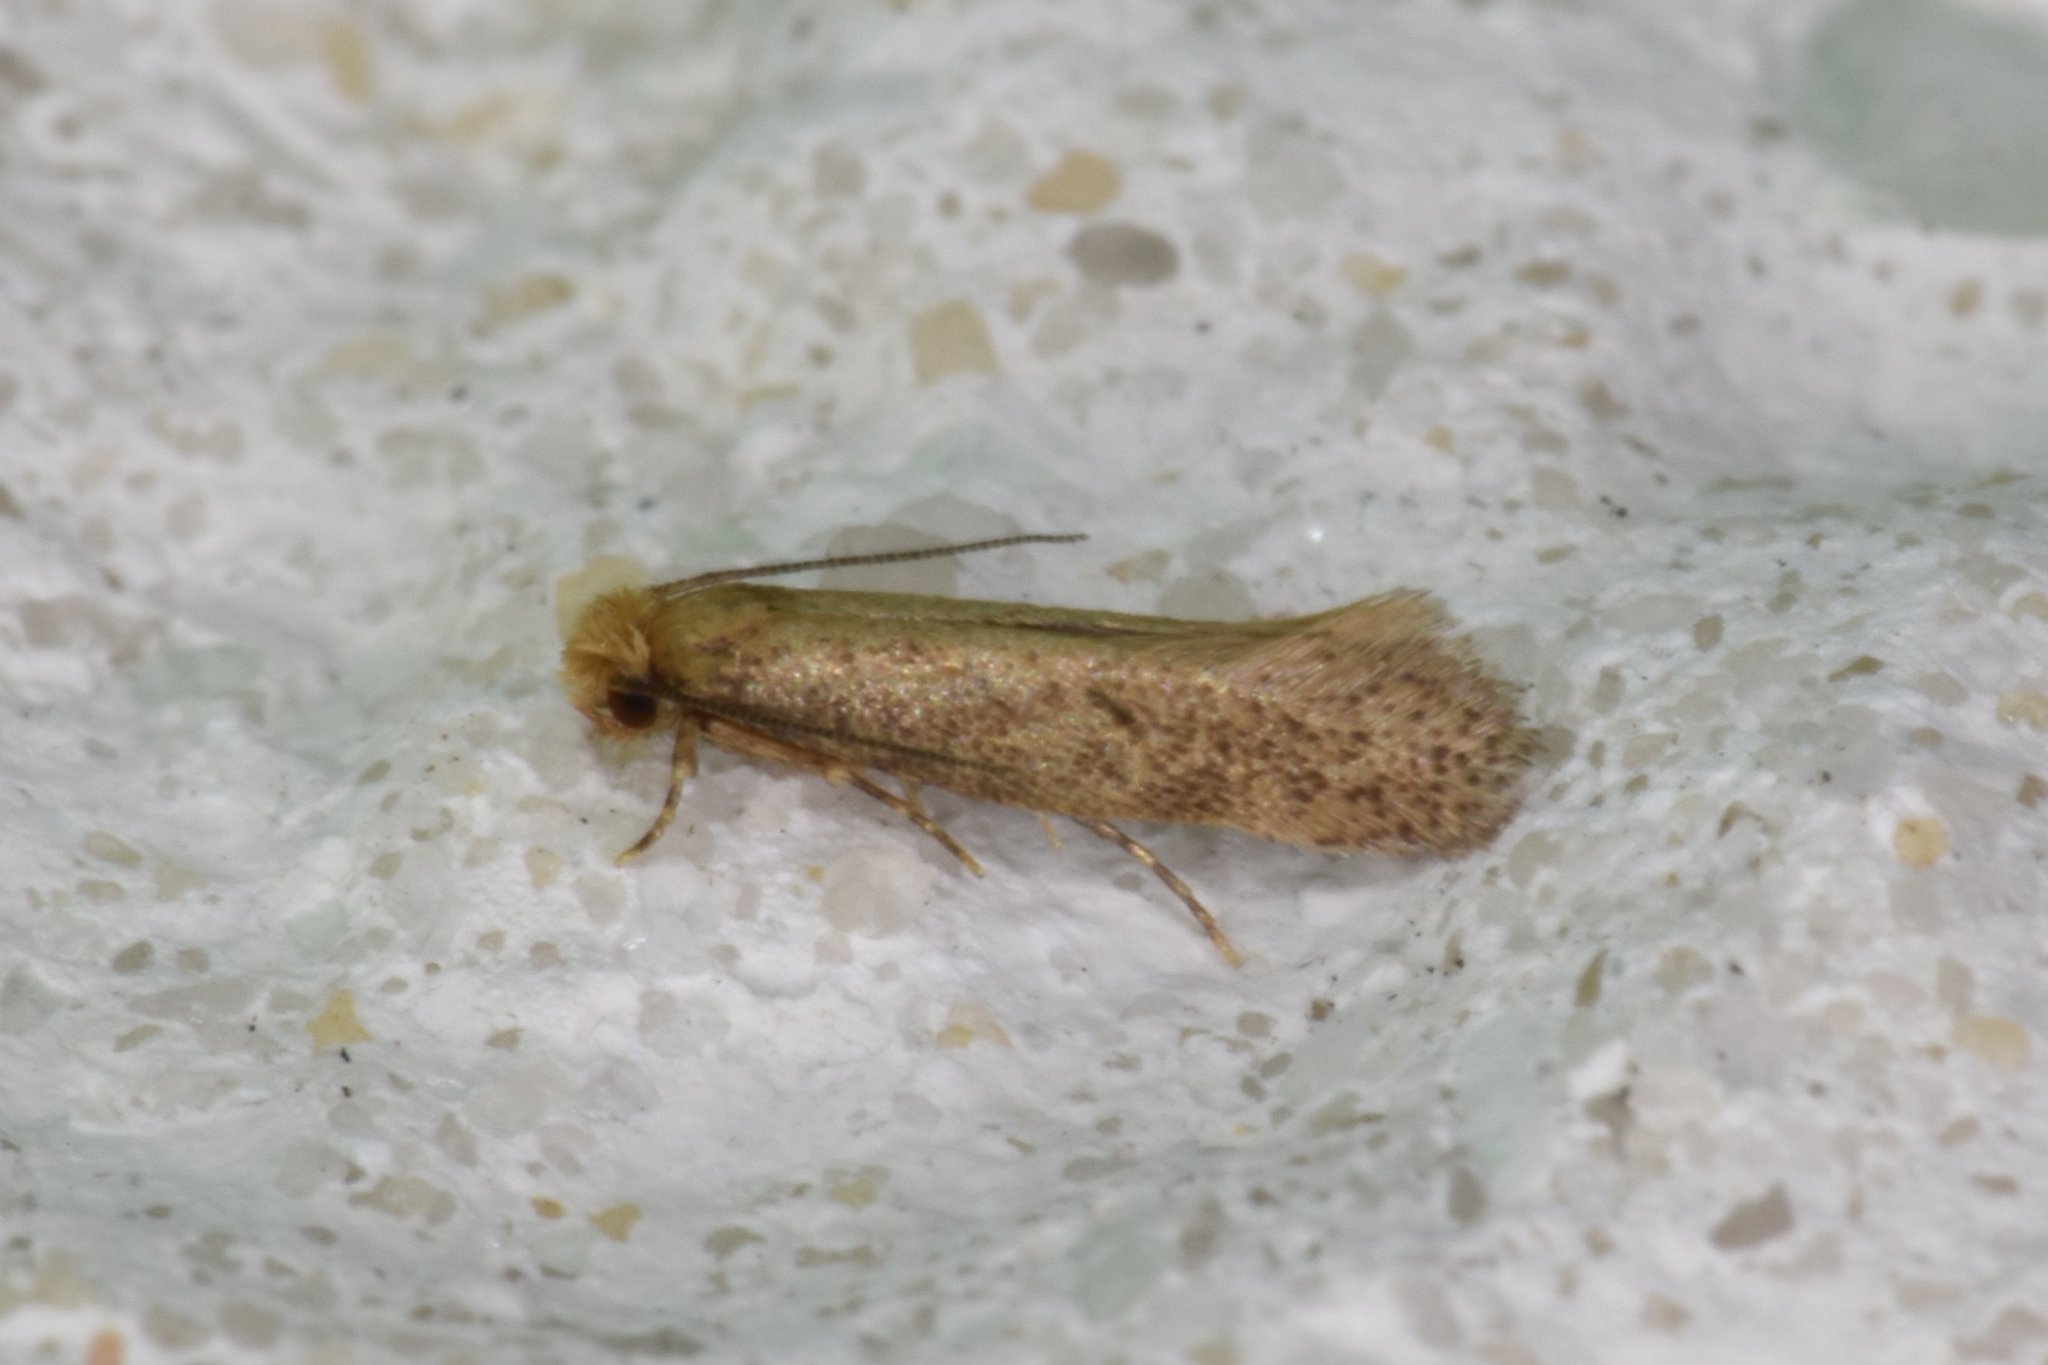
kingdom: Animalia
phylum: Arthropoda
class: Insecta
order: Lepidoptera
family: Meessiidae
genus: Homostinea
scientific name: Homostinea curviliniella
